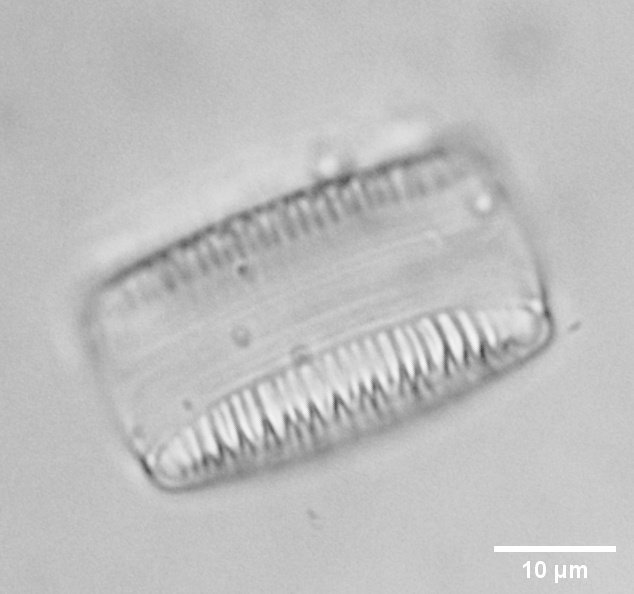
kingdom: Chromista
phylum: Ochrophyta
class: Bacillariophyceae
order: Fragilariales
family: Fragilariaceae
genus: Diatoma
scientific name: Diatoma vulgaris
